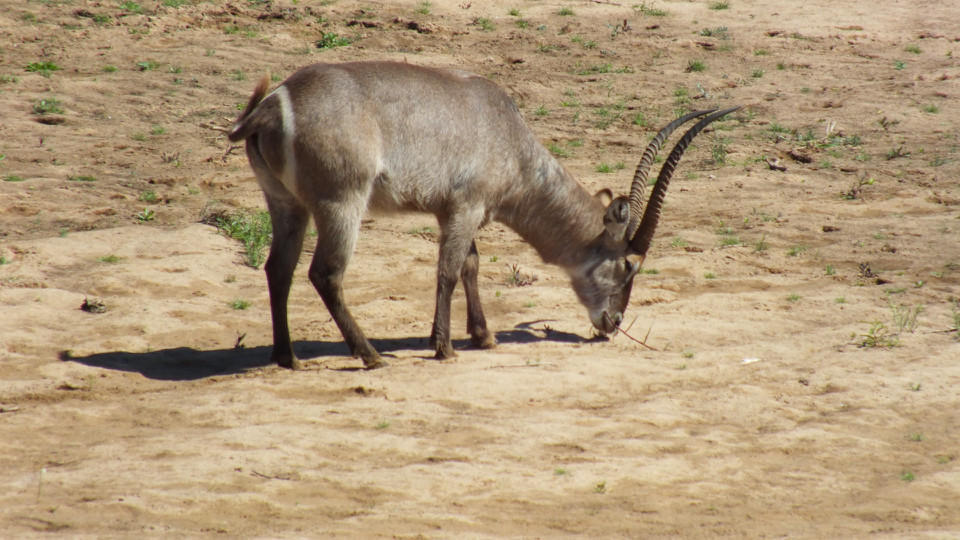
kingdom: Animalia
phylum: Chordata
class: Mammalia
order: Artiodactyla
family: Bovidae
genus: Kobus
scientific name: Kobus ellipsiprymnus
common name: Waterbuck
